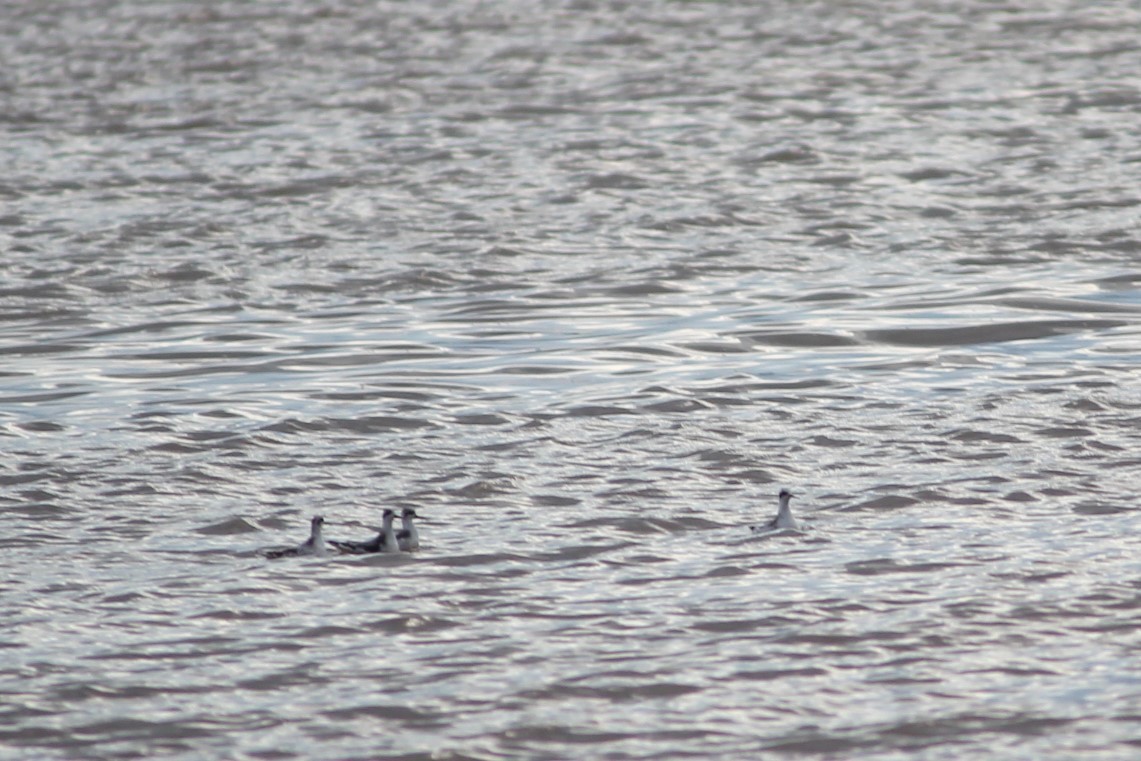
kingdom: Animalia
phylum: Chordata
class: Aves
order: Charadriiformes
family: Scolopacidae
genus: Phalaropus
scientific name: Phalaropus lobatus
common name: Red-necked phalarope
